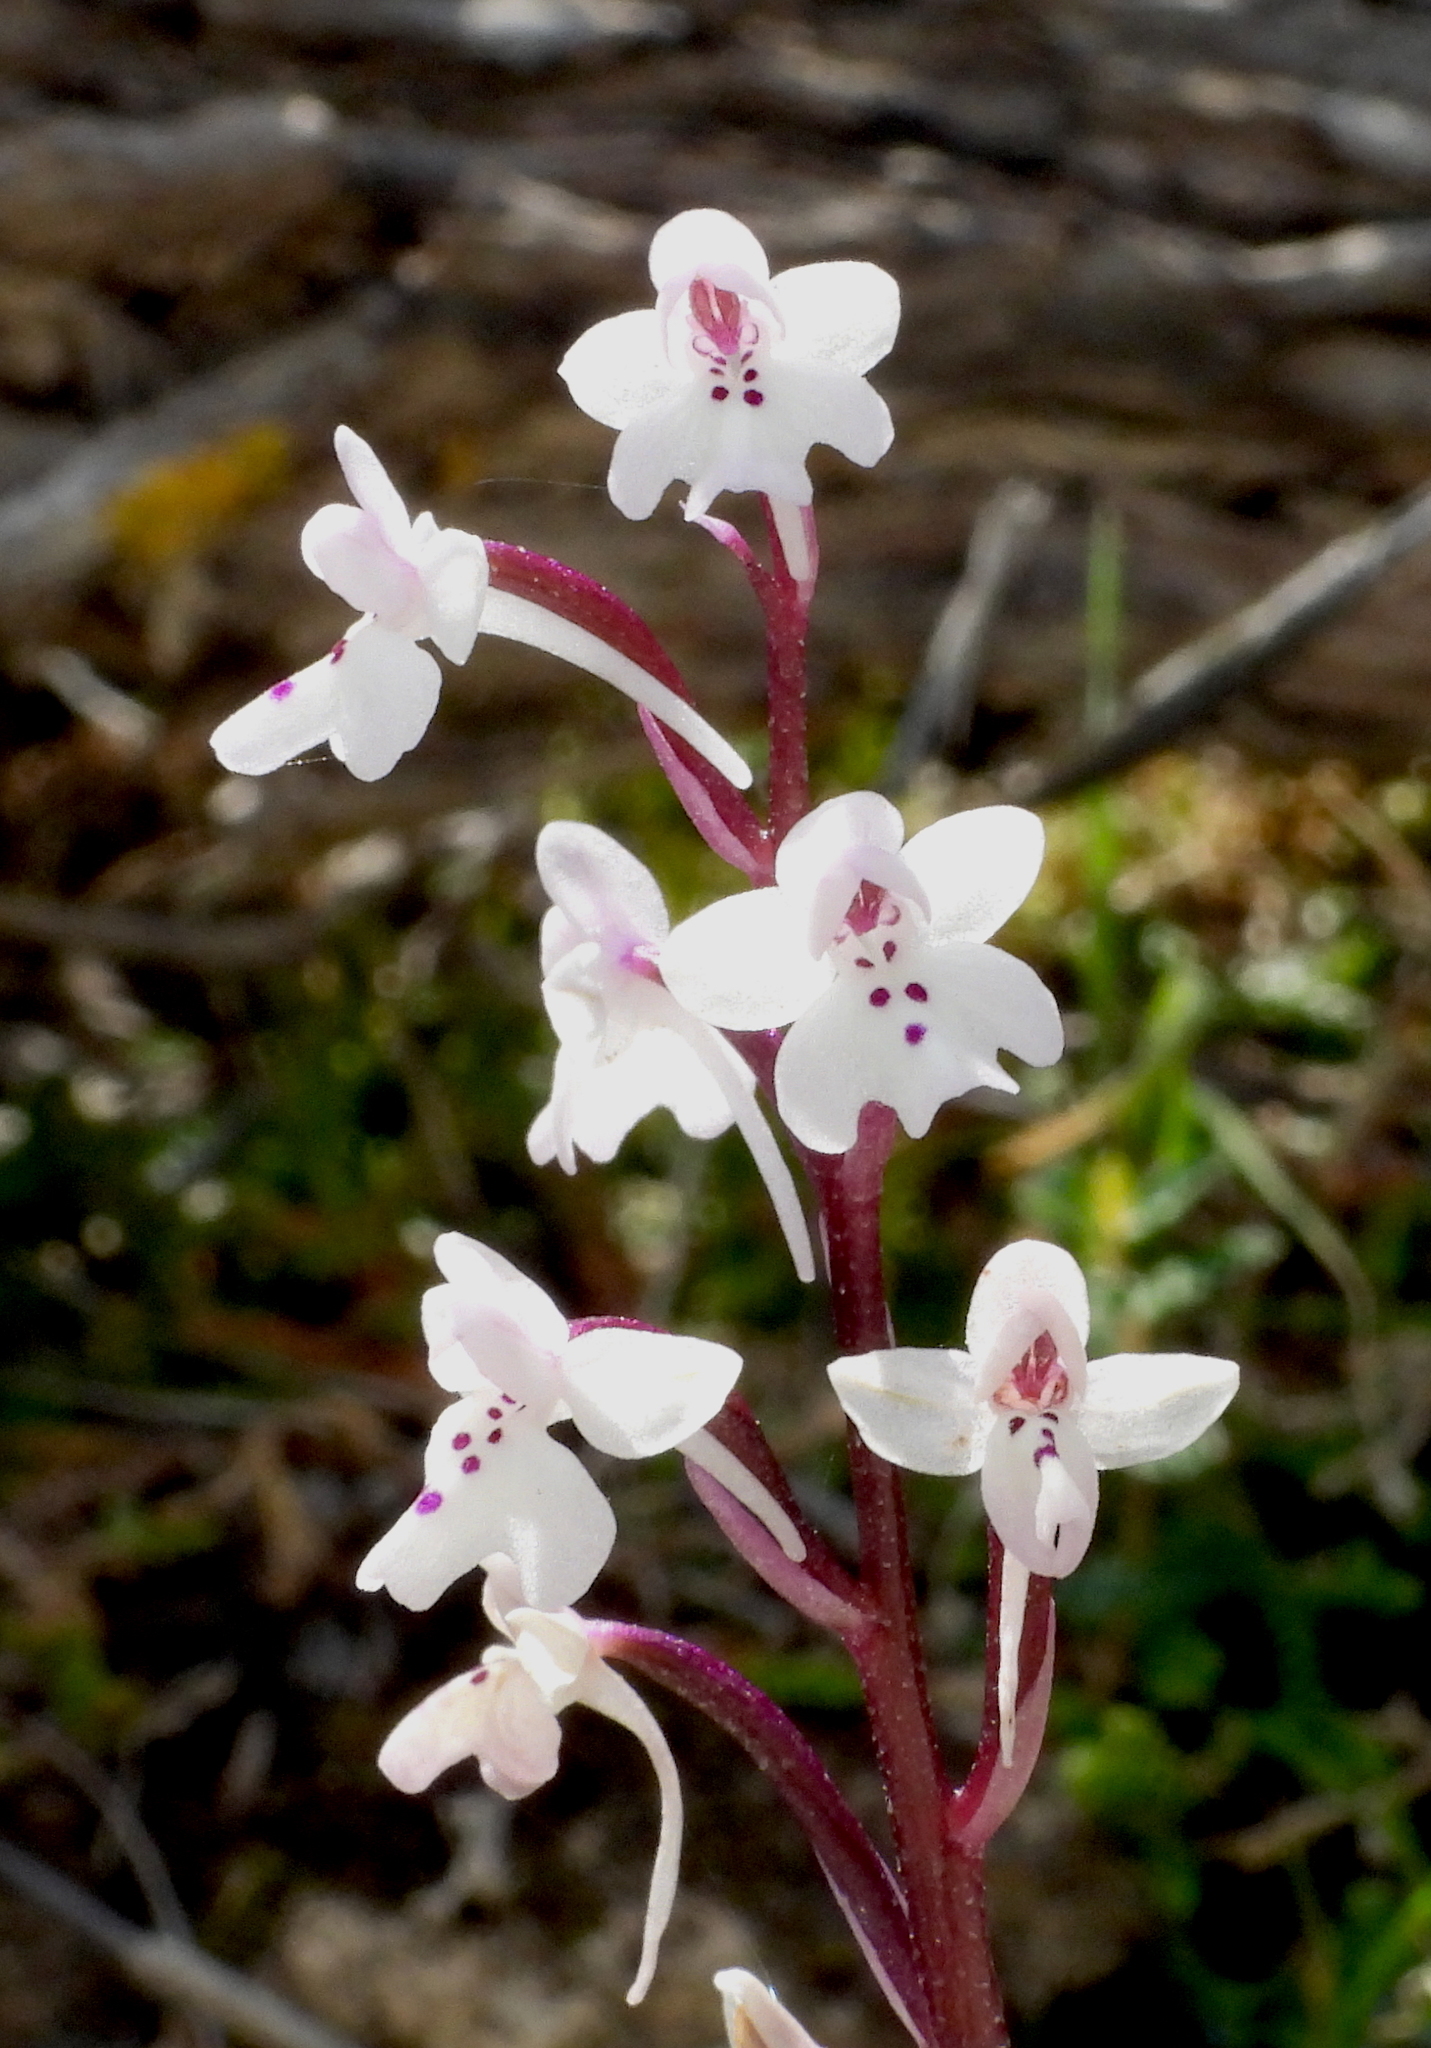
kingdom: Plantae
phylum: Tracheophyta
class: Liliopsida
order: Asparagales
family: Orchidaceae
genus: Orchis
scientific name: Orchis sezikiana
